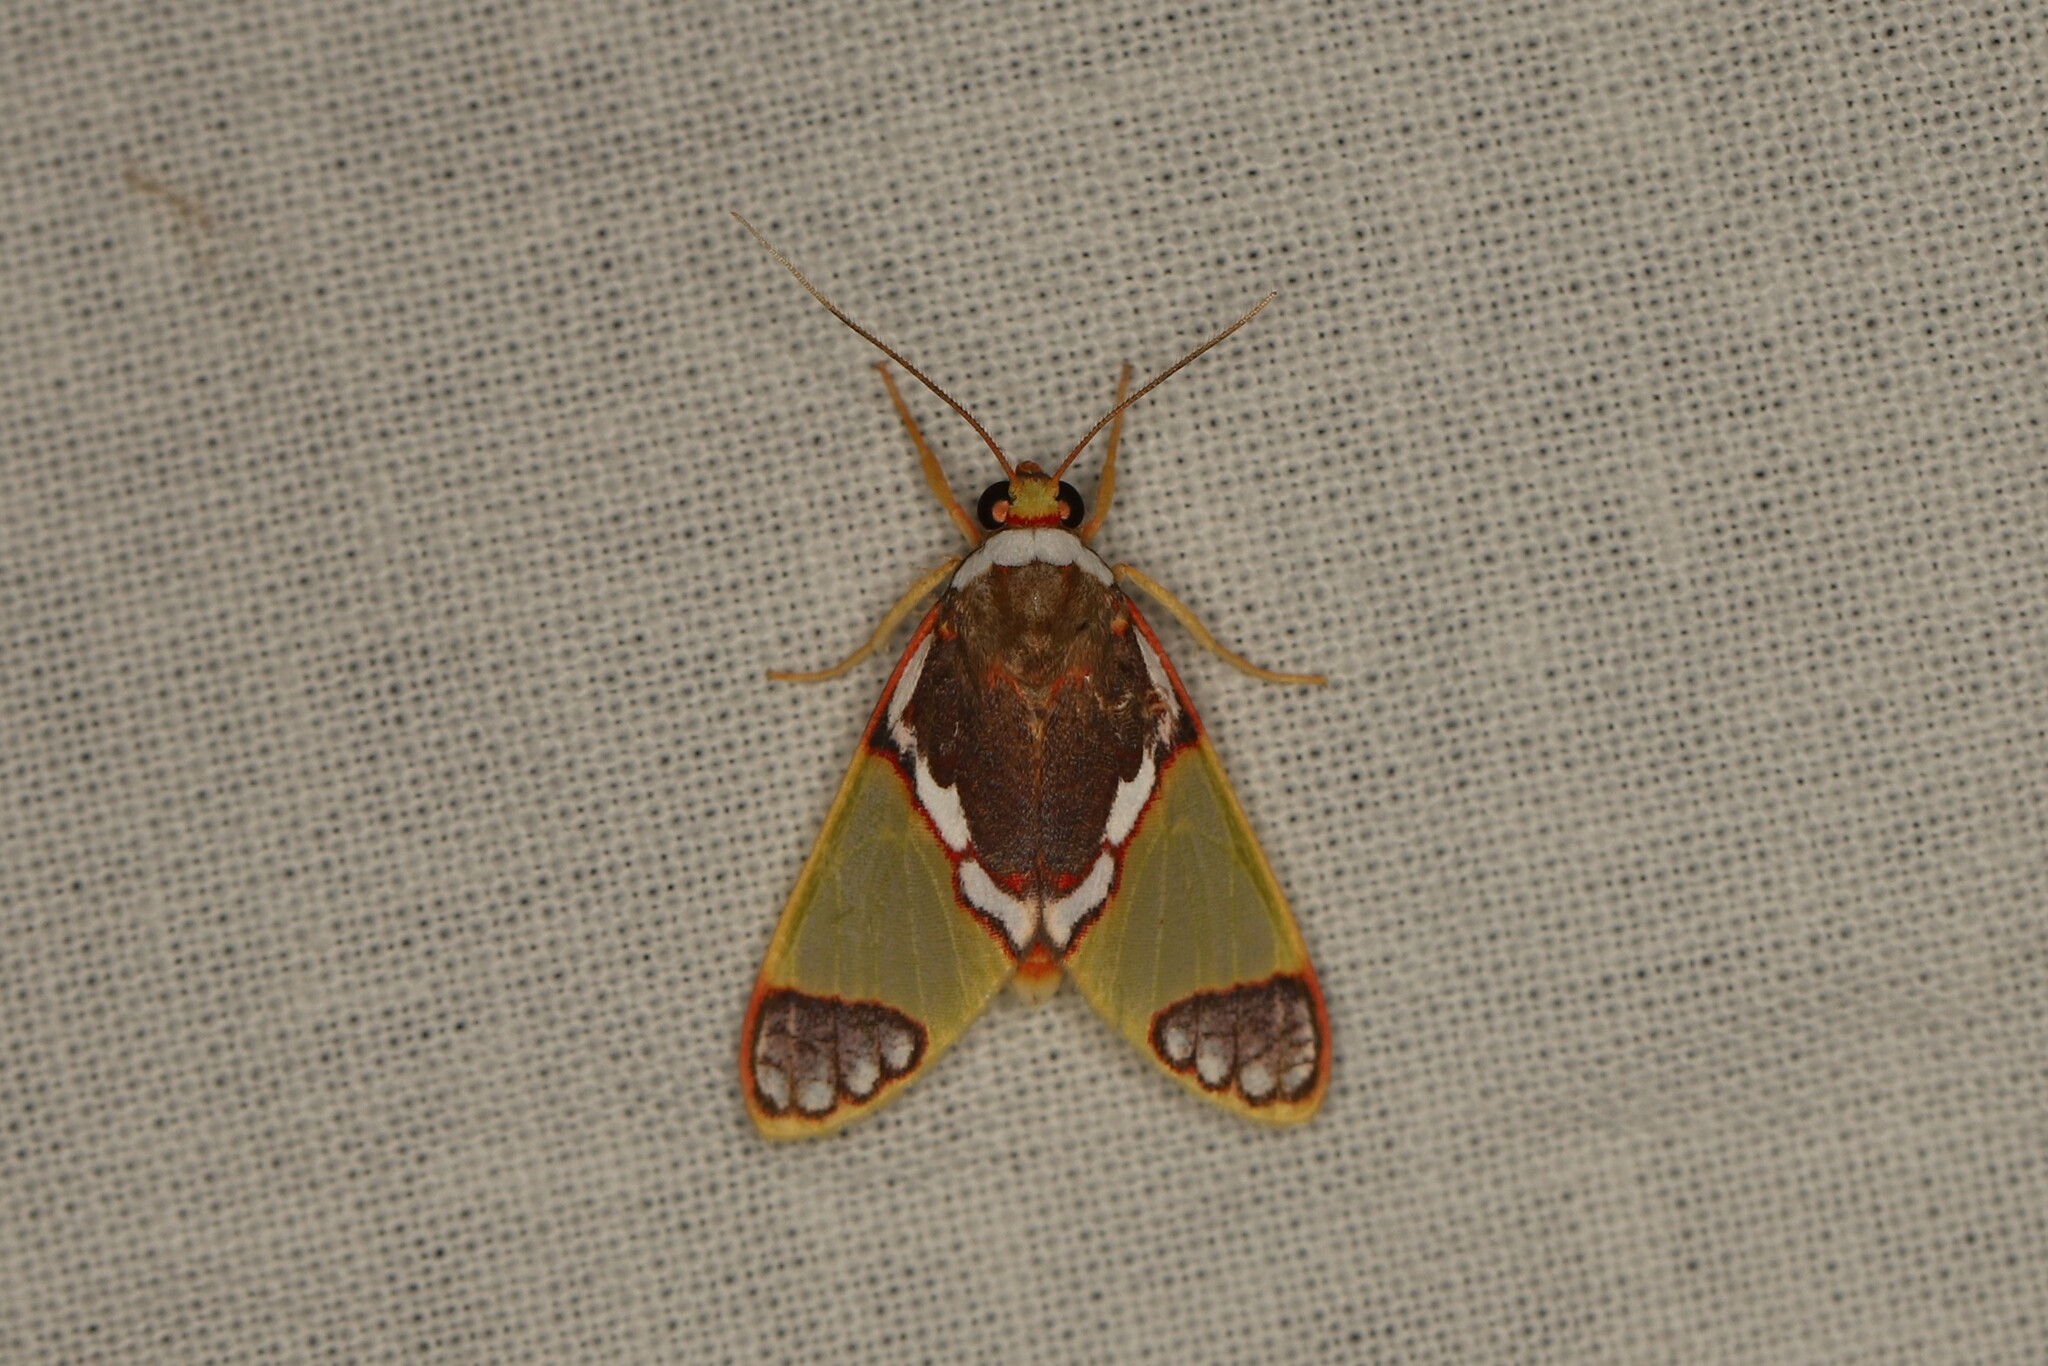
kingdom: Animalia
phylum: Arthropoda
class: Insecta
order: Lepidoptera
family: Erebidae
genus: Neritos
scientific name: Neritos albicollis
